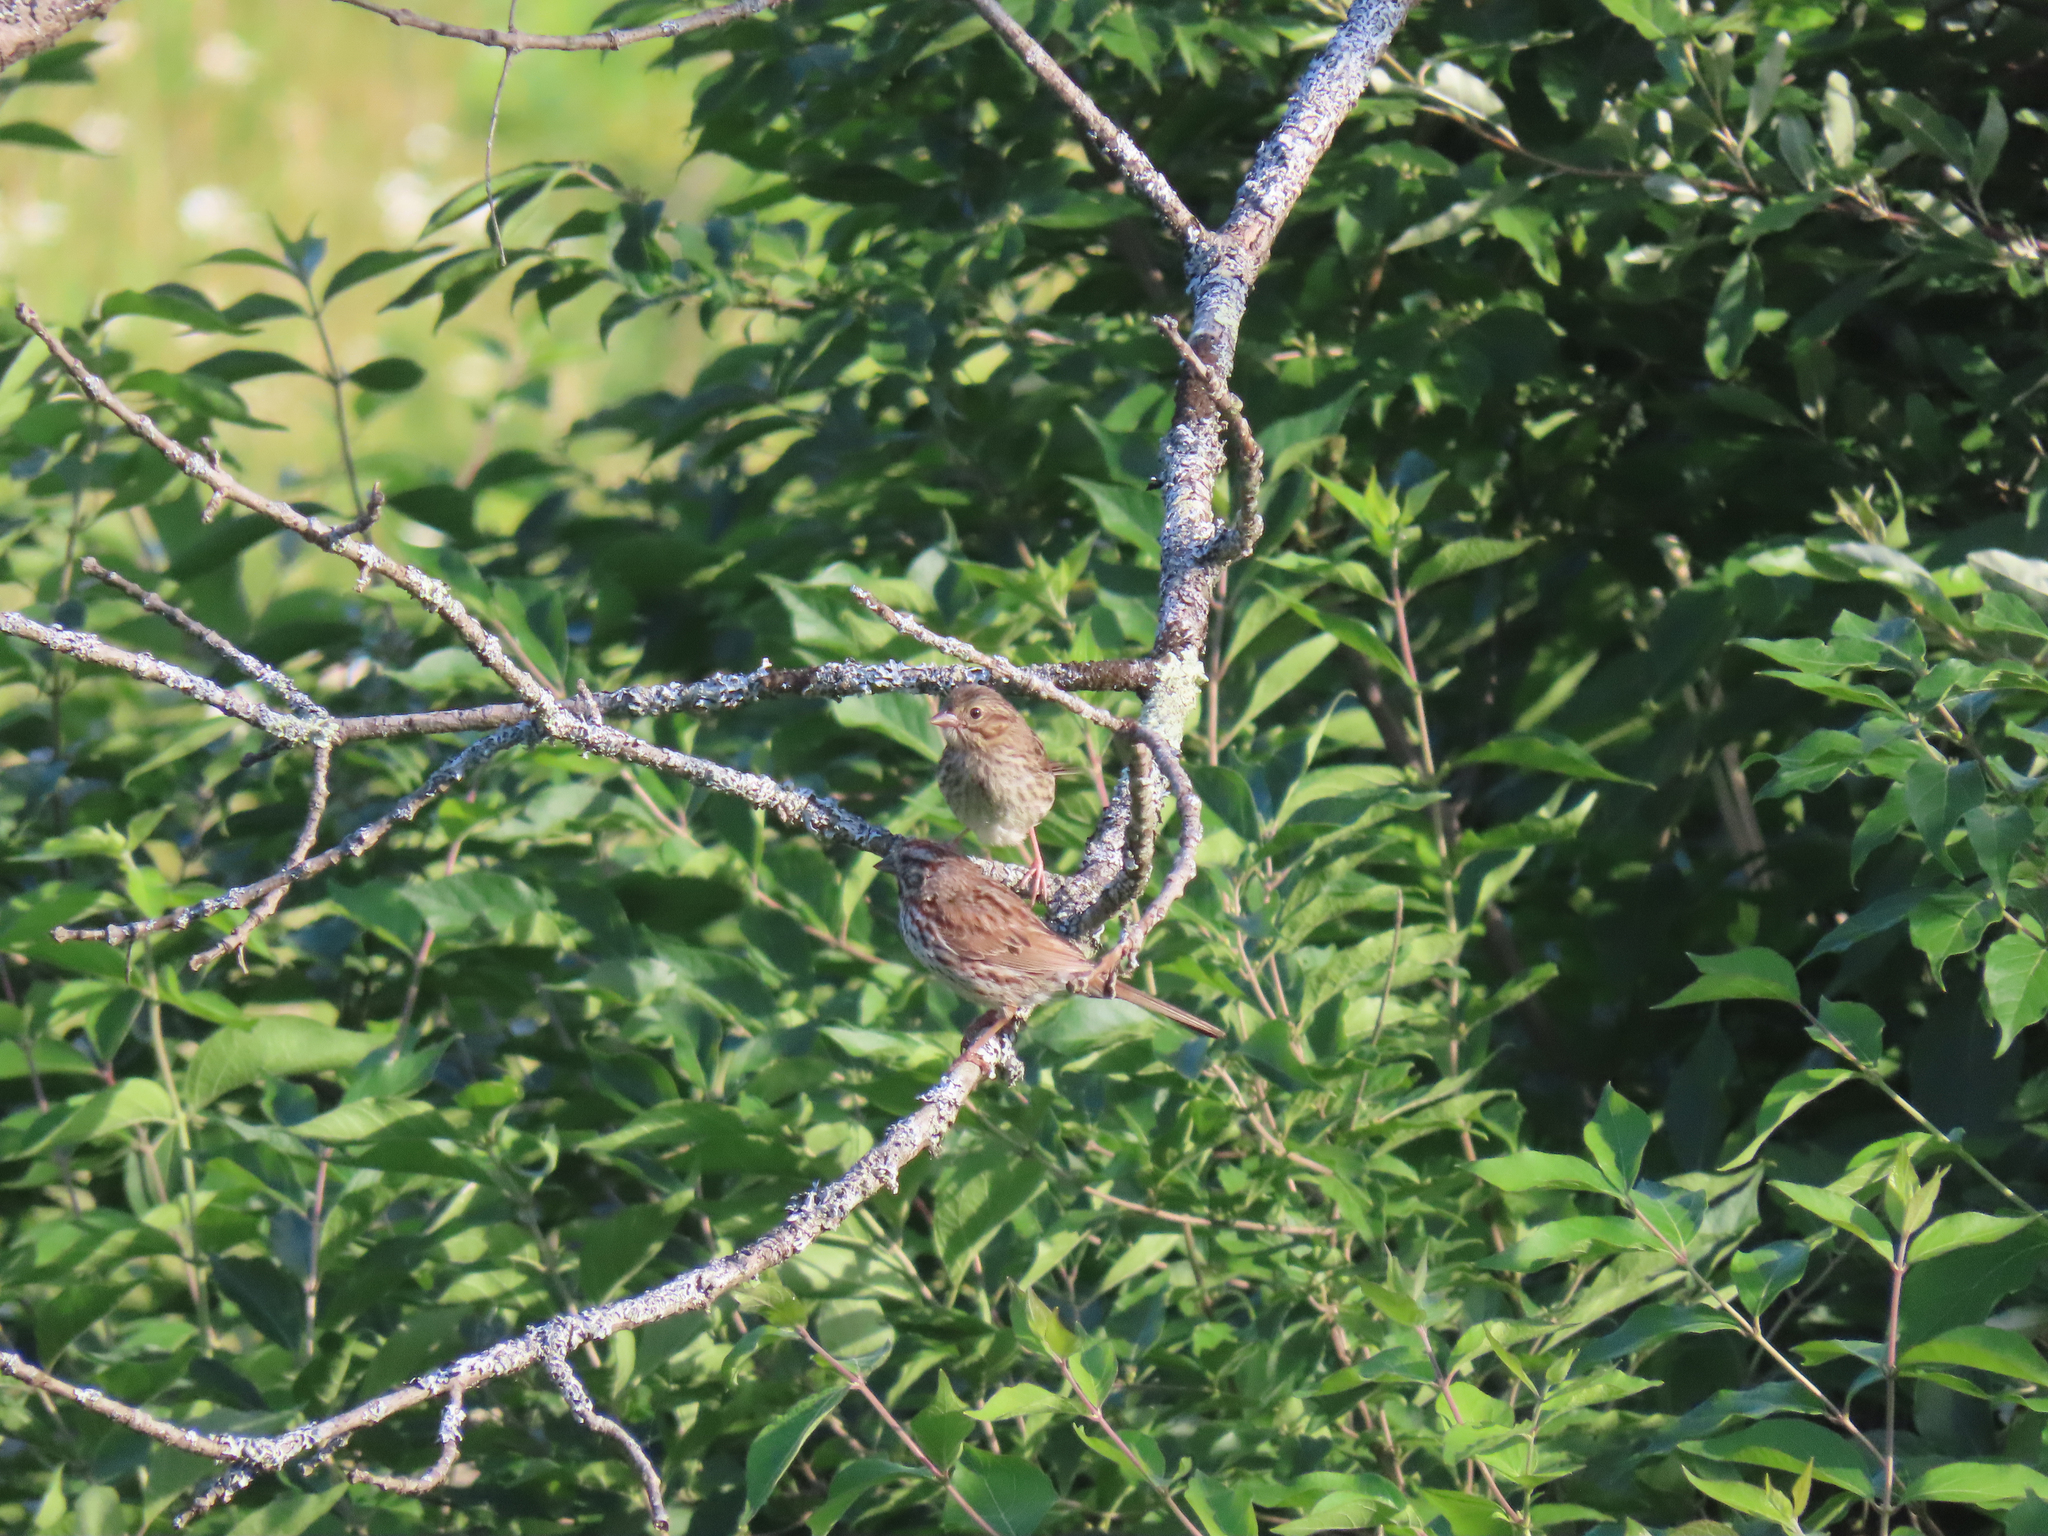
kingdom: Animalia
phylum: Chordata
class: Aves
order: Passeriformes
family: Passerellidae
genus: Melospiza
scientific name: Melospiza melodia
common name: Song sparrow
